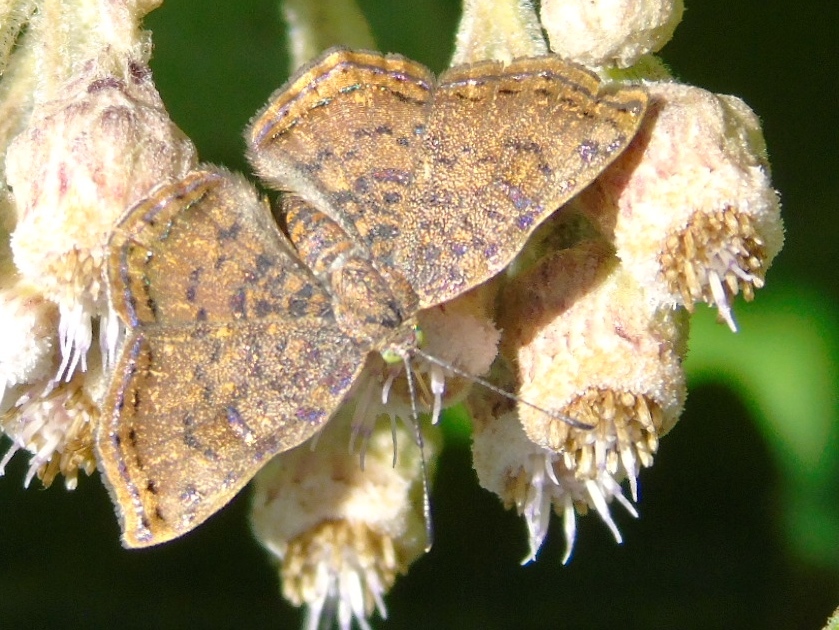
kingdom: Animalia
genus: Caria
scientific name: Caria ino
